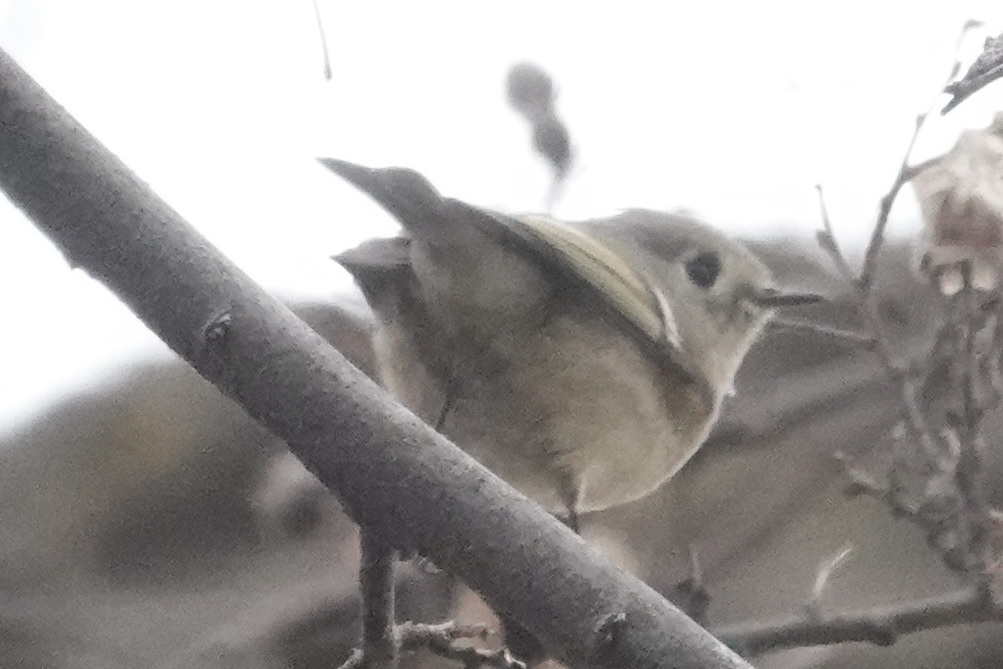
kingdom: Animalia
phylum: Chordata
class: Aves
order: Passeriformes
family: Regulidae
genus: Regulus
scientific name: Regulus calendula
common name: Ruby-crowned kinglet
